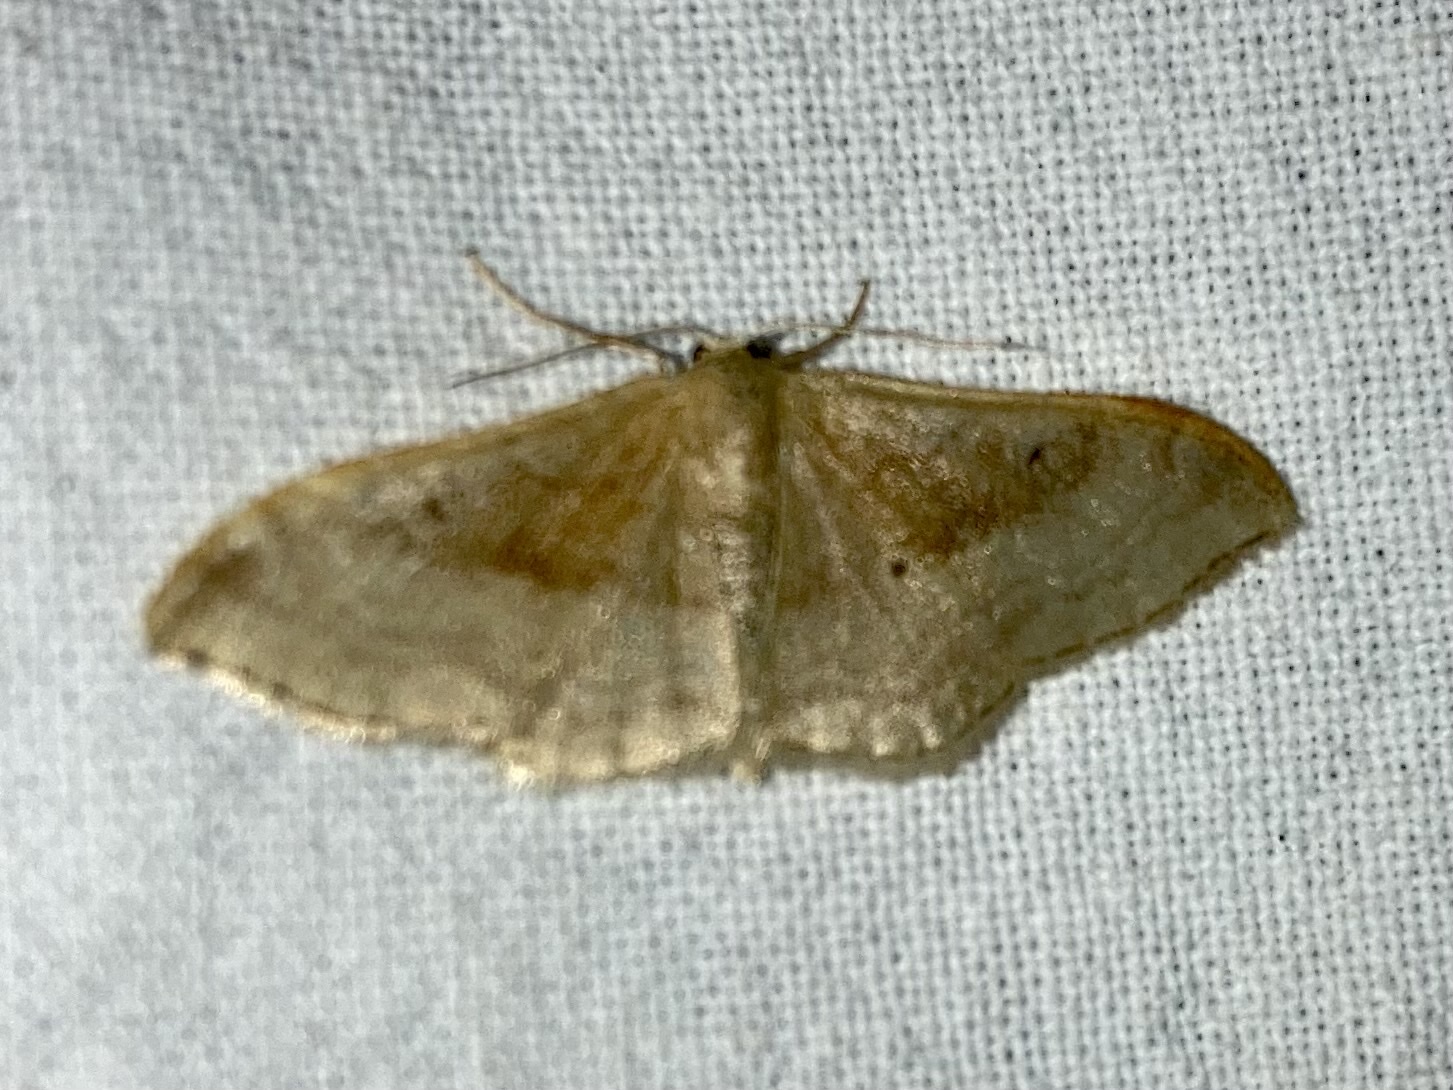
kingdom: Animalia
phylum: Arthropoda
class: Insecta
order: Lepidoptera
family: Geometridae
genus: Idaea
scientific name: Idaea degeneraria
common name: Portland ribbon wave
